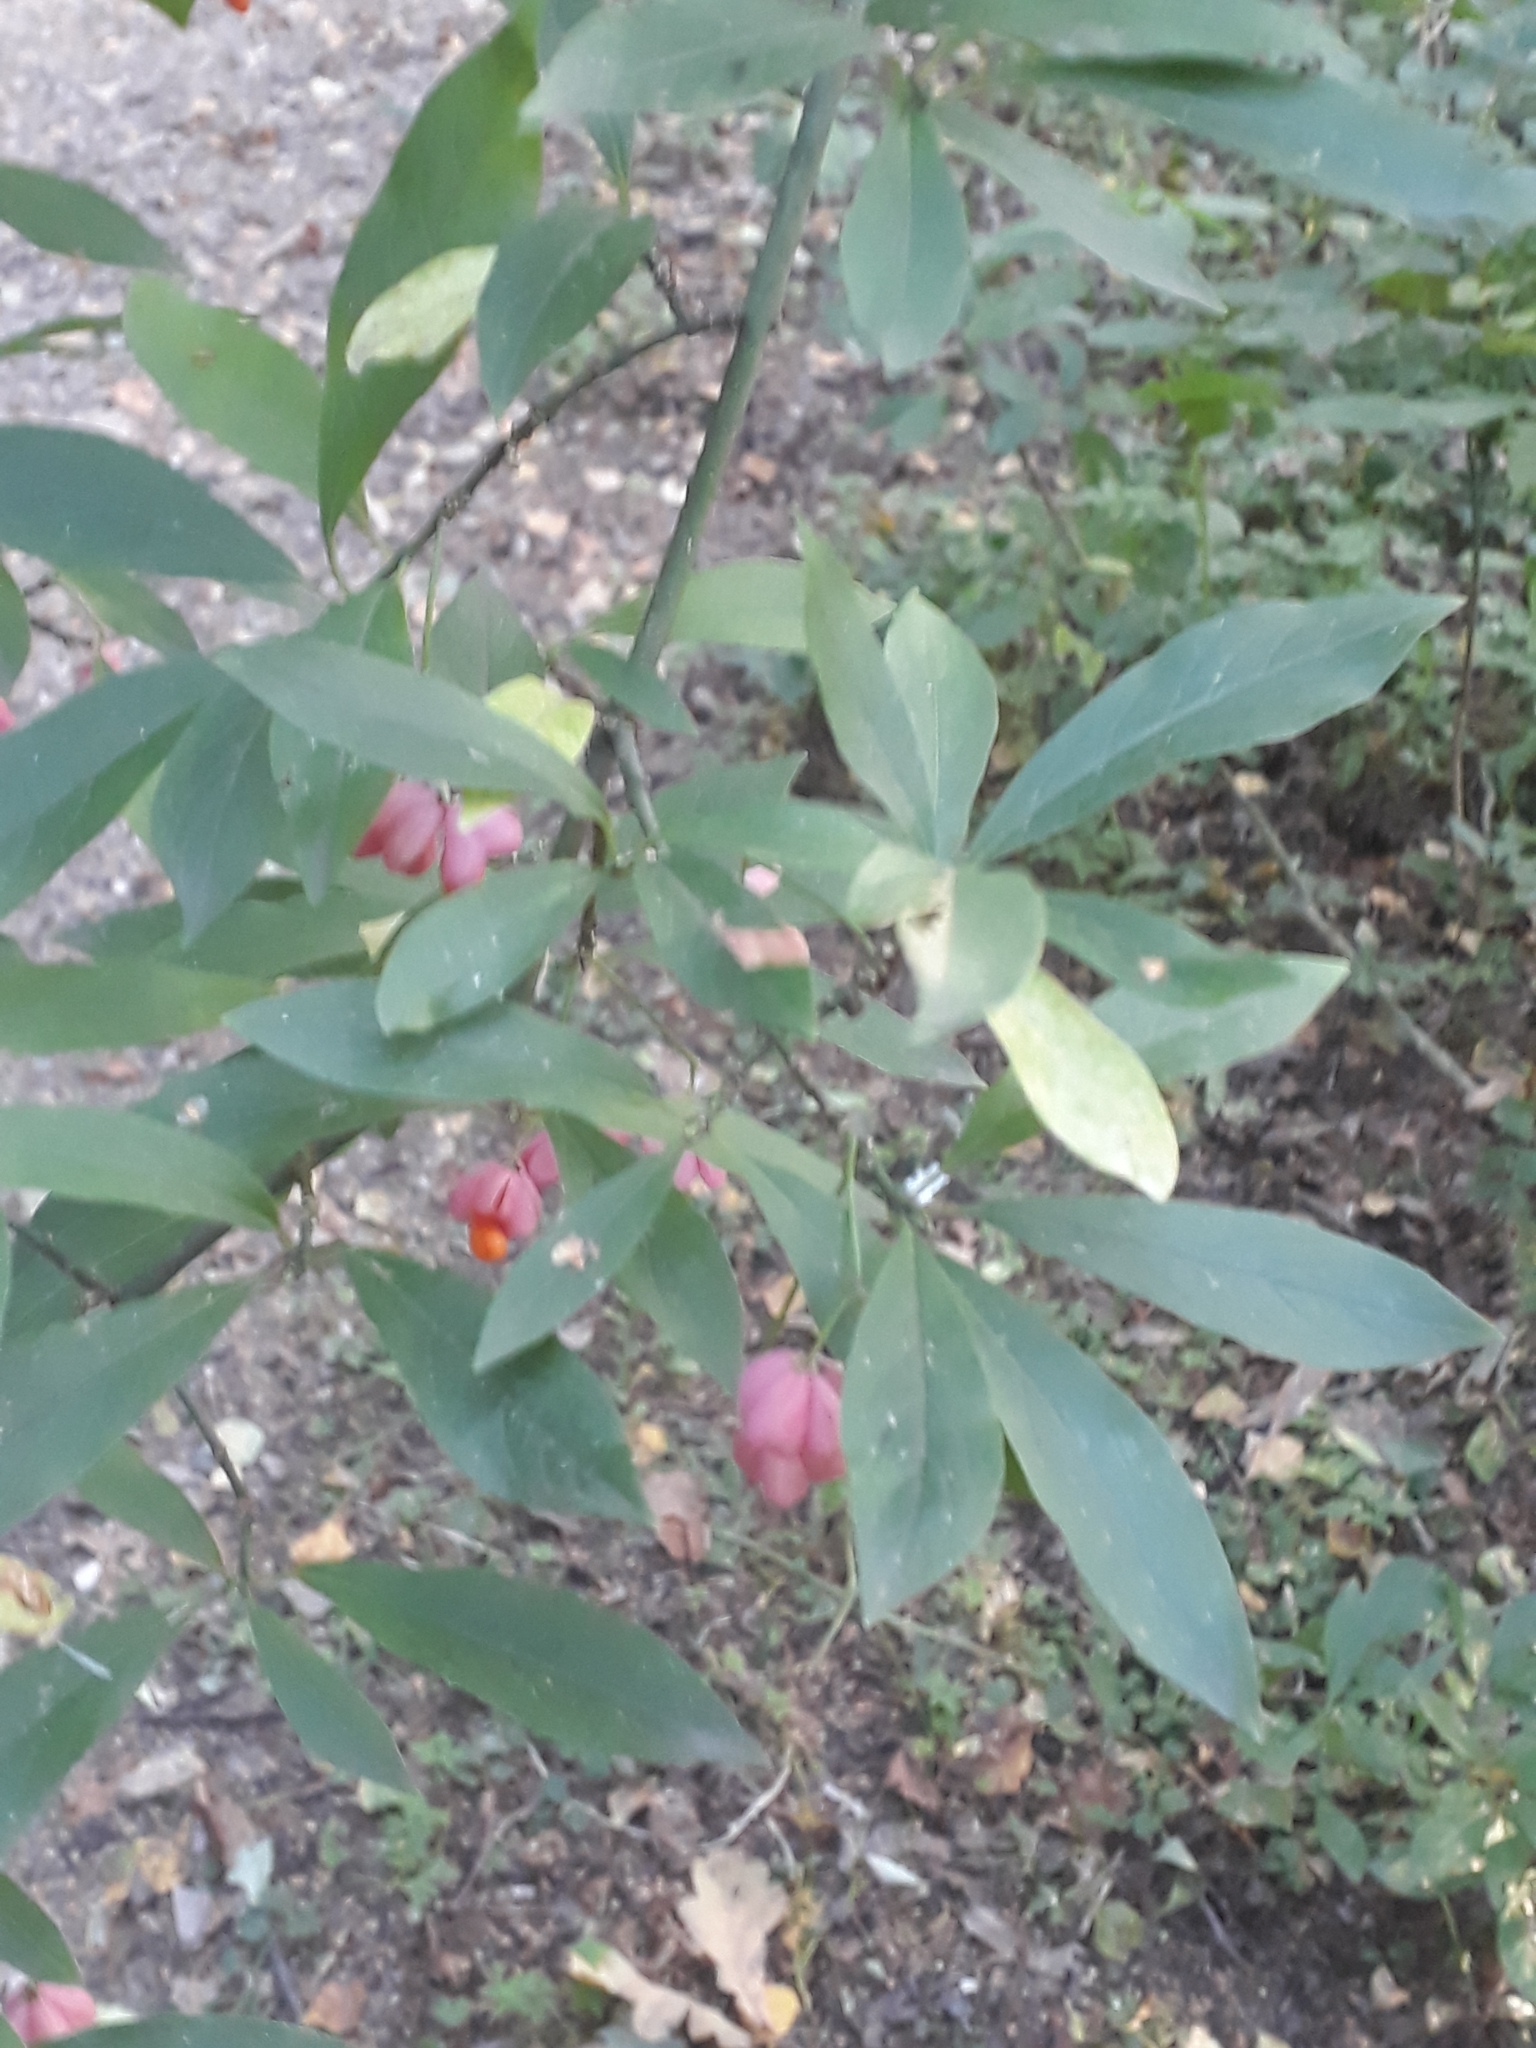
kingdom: Plantae
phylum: Tracheophyta
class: Magnoliopsida
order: Celastrales
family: Celastraceae
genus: Euonymus
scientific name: Euonymus europaeus
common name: Spindle
